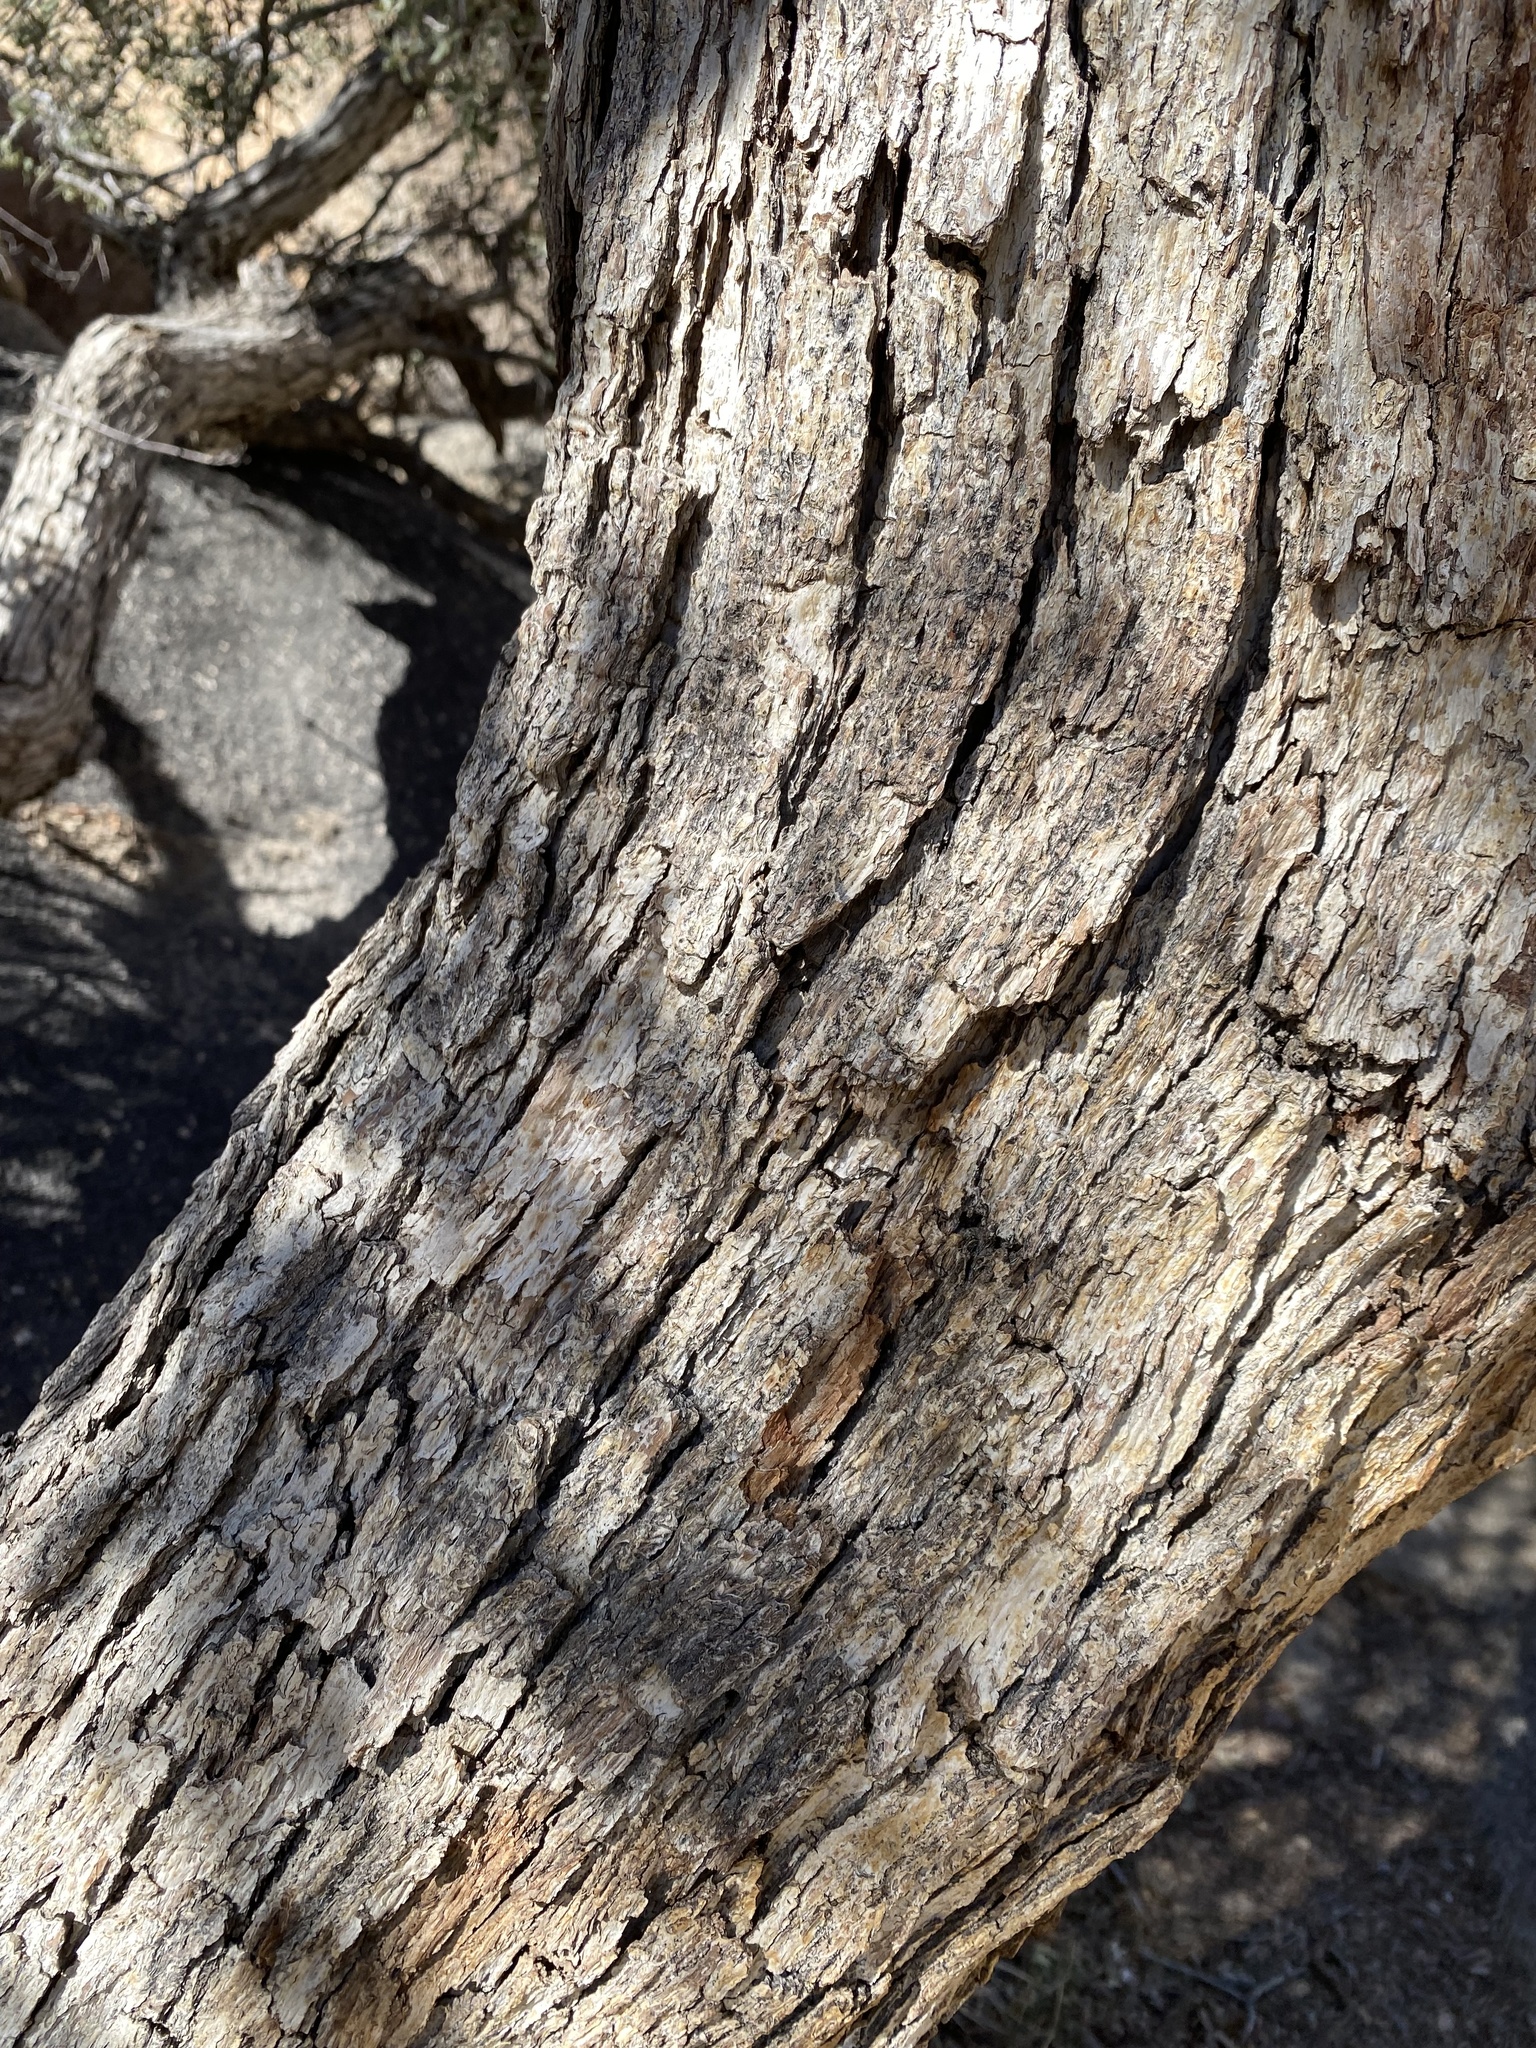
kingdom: Plantae
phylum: Tracheophyta
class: Magnoliopsida
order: Fagales
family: Fagaceae
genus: Quercus
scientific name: Quercus cornelius-mulleri
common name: Muller oak
